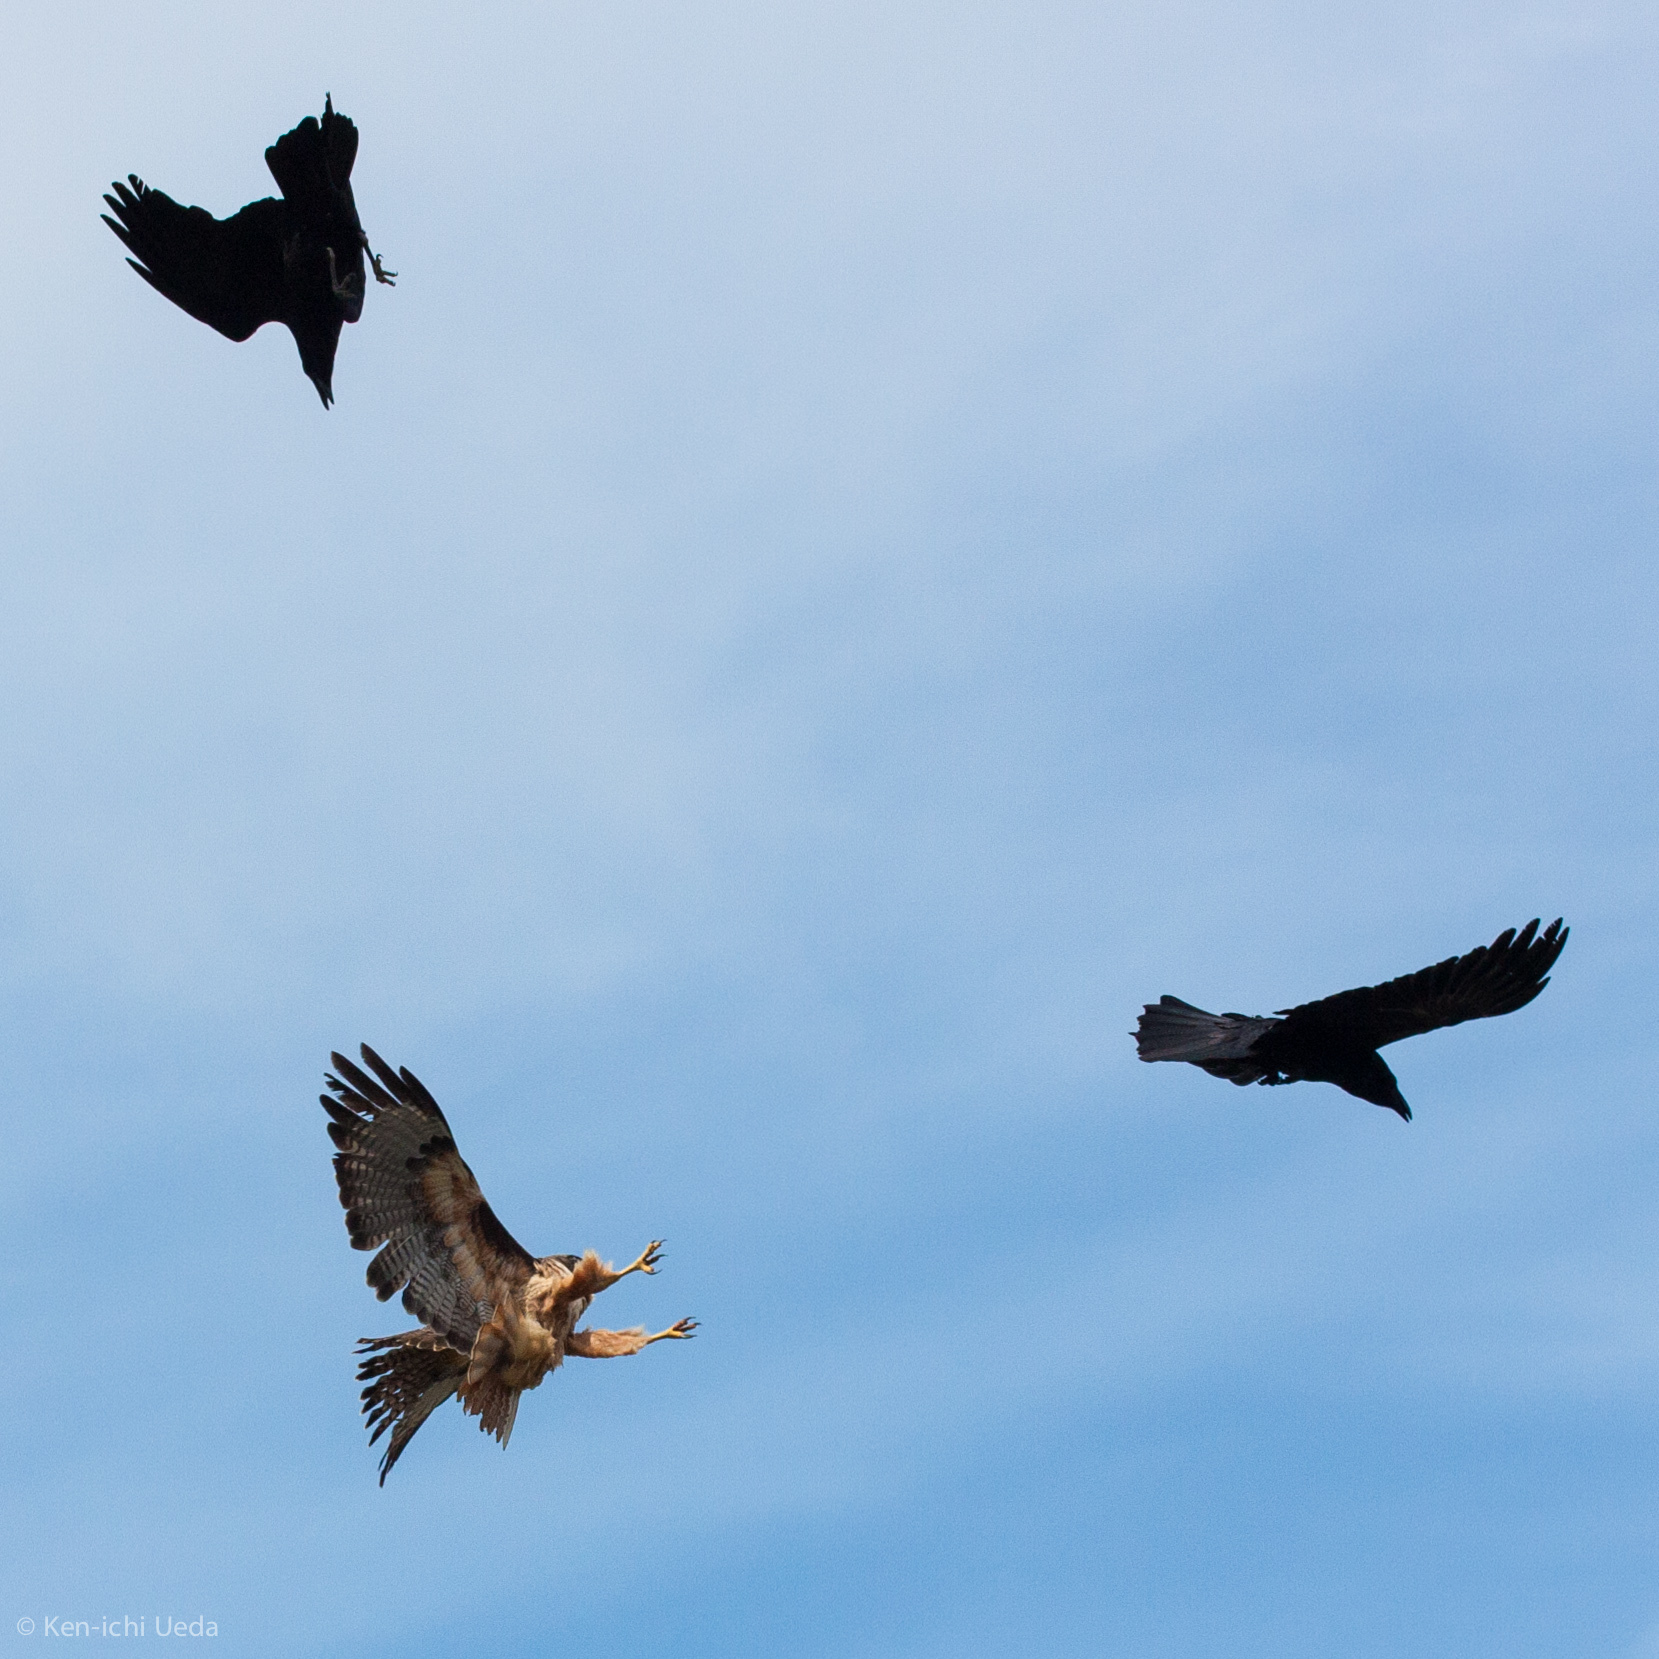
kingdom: Animalia
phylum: Chordata
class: Aves
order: Accipitriformes
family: Accipitridae
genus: Buteo
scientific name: Buteo jamaicensis
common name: Red-tailed hawk
